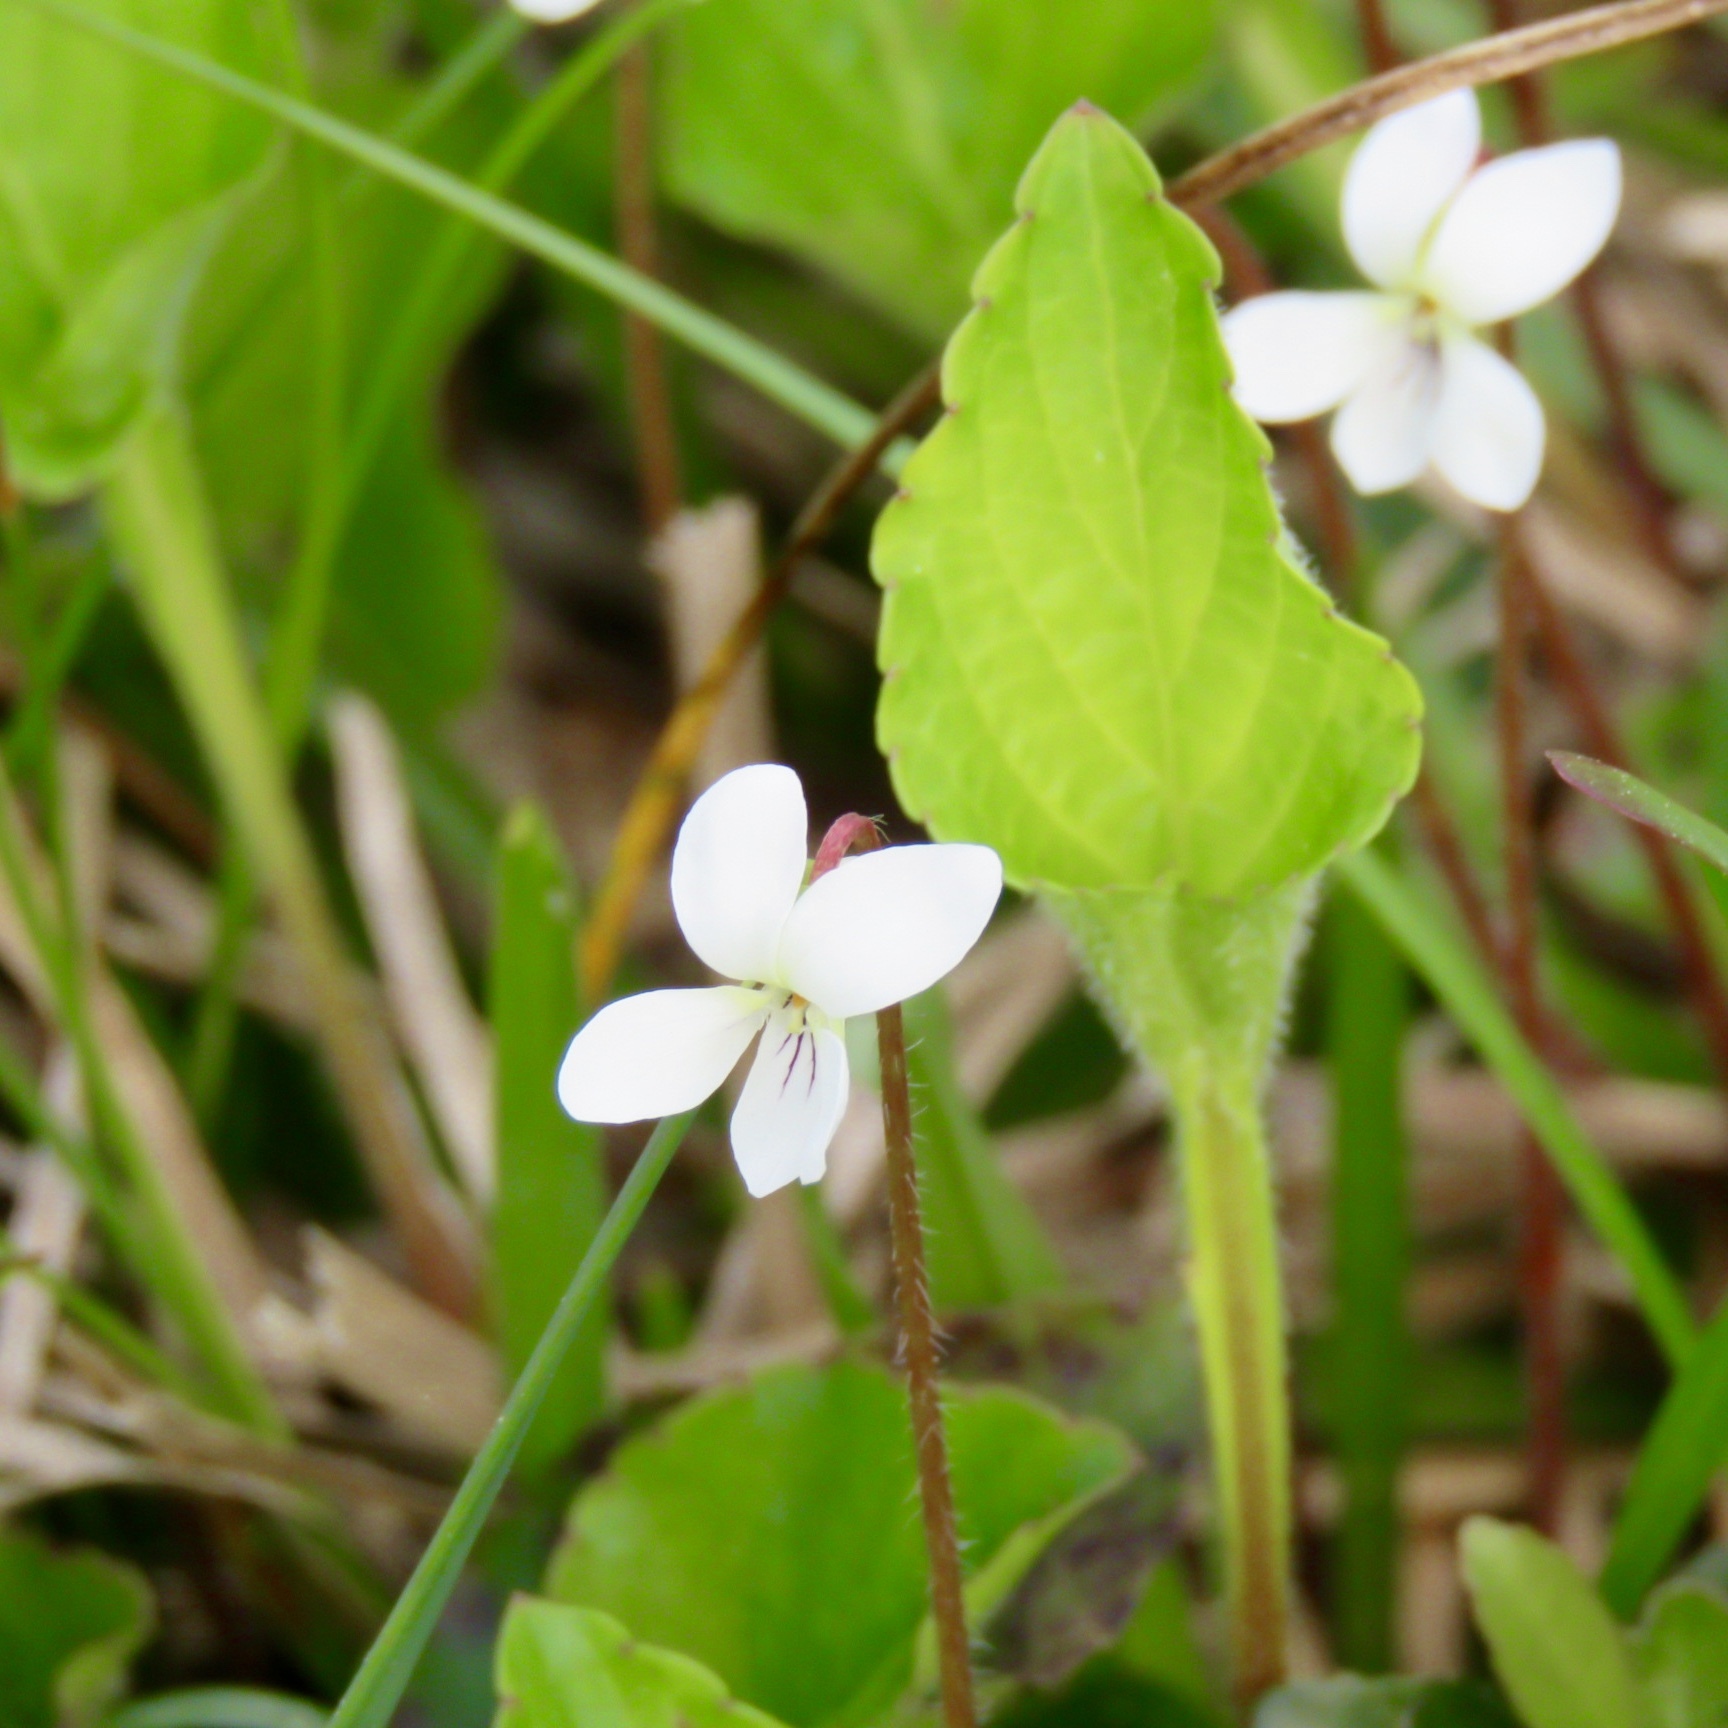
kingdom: Plantae
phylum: Tracheophyta
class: Magnoliopsida
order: Malpighiales
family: Violaceae
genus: Viola
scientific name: Viola primulifolia
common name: Primrose-leaf violet
